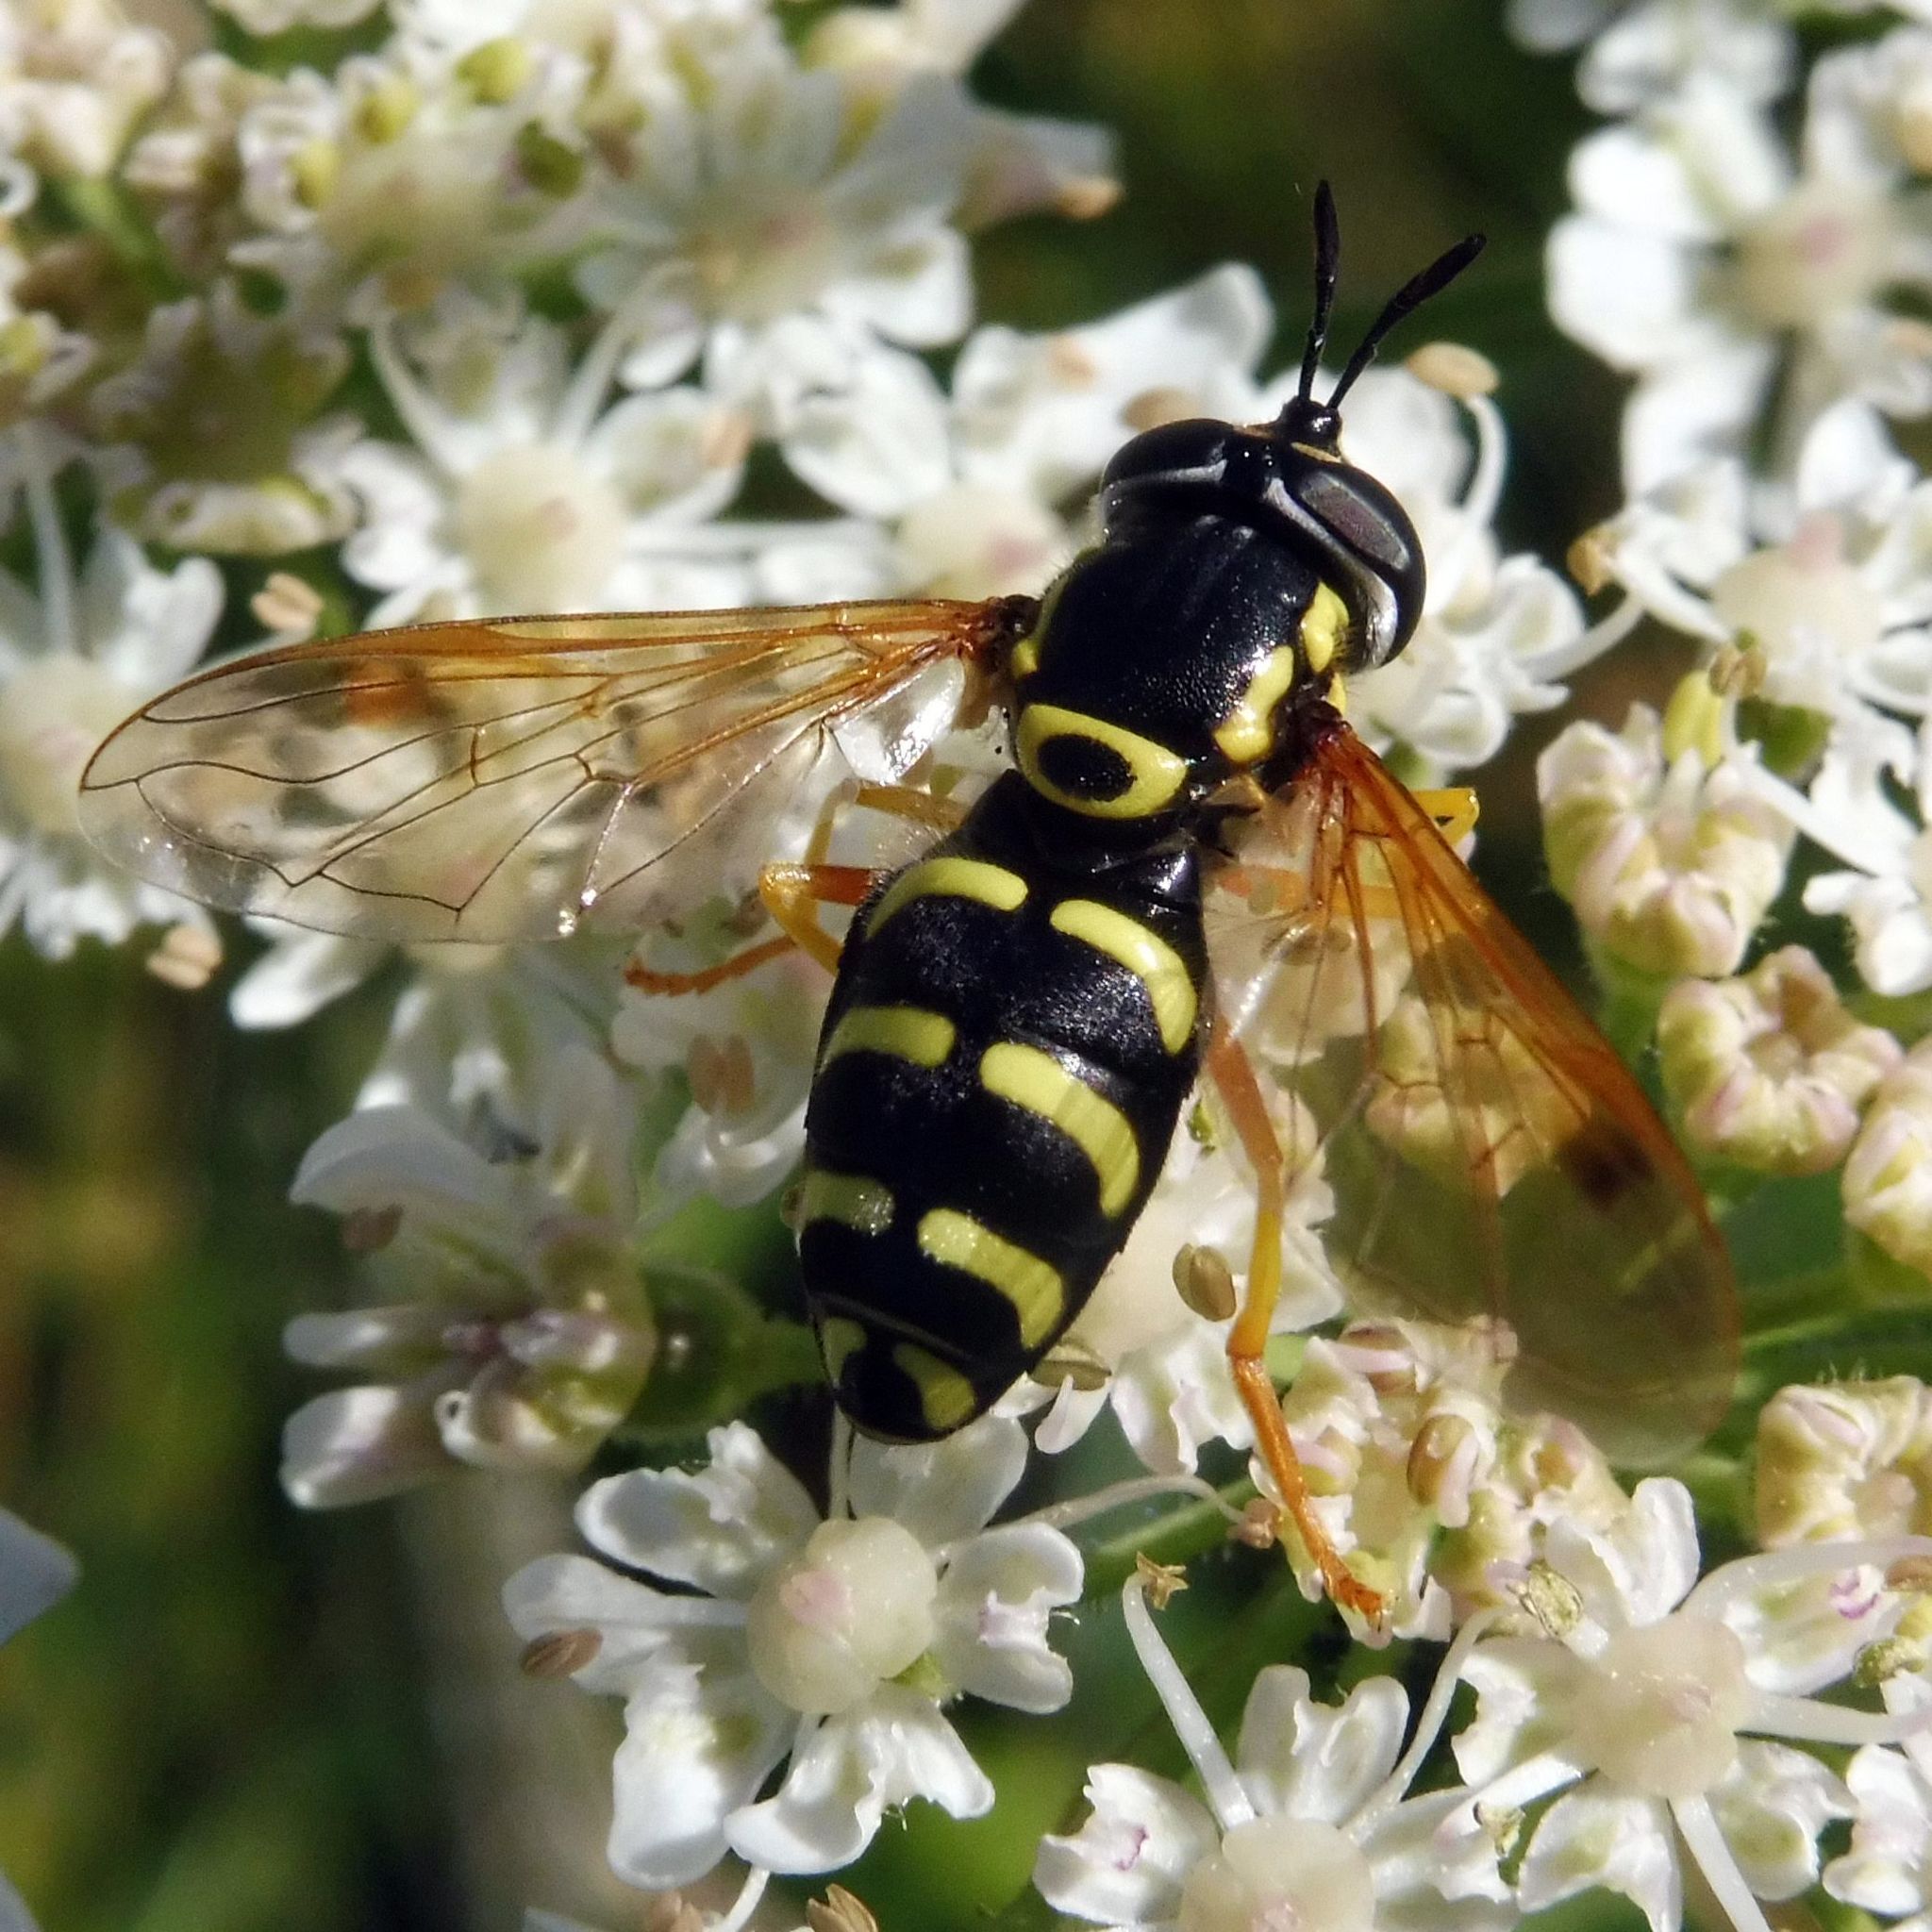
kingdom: Animalia
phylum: Arthropoda
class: Insecta
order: Diptera
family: Syrphidae
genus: Chrysotoxum
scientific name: Chrysotoxum festivum
